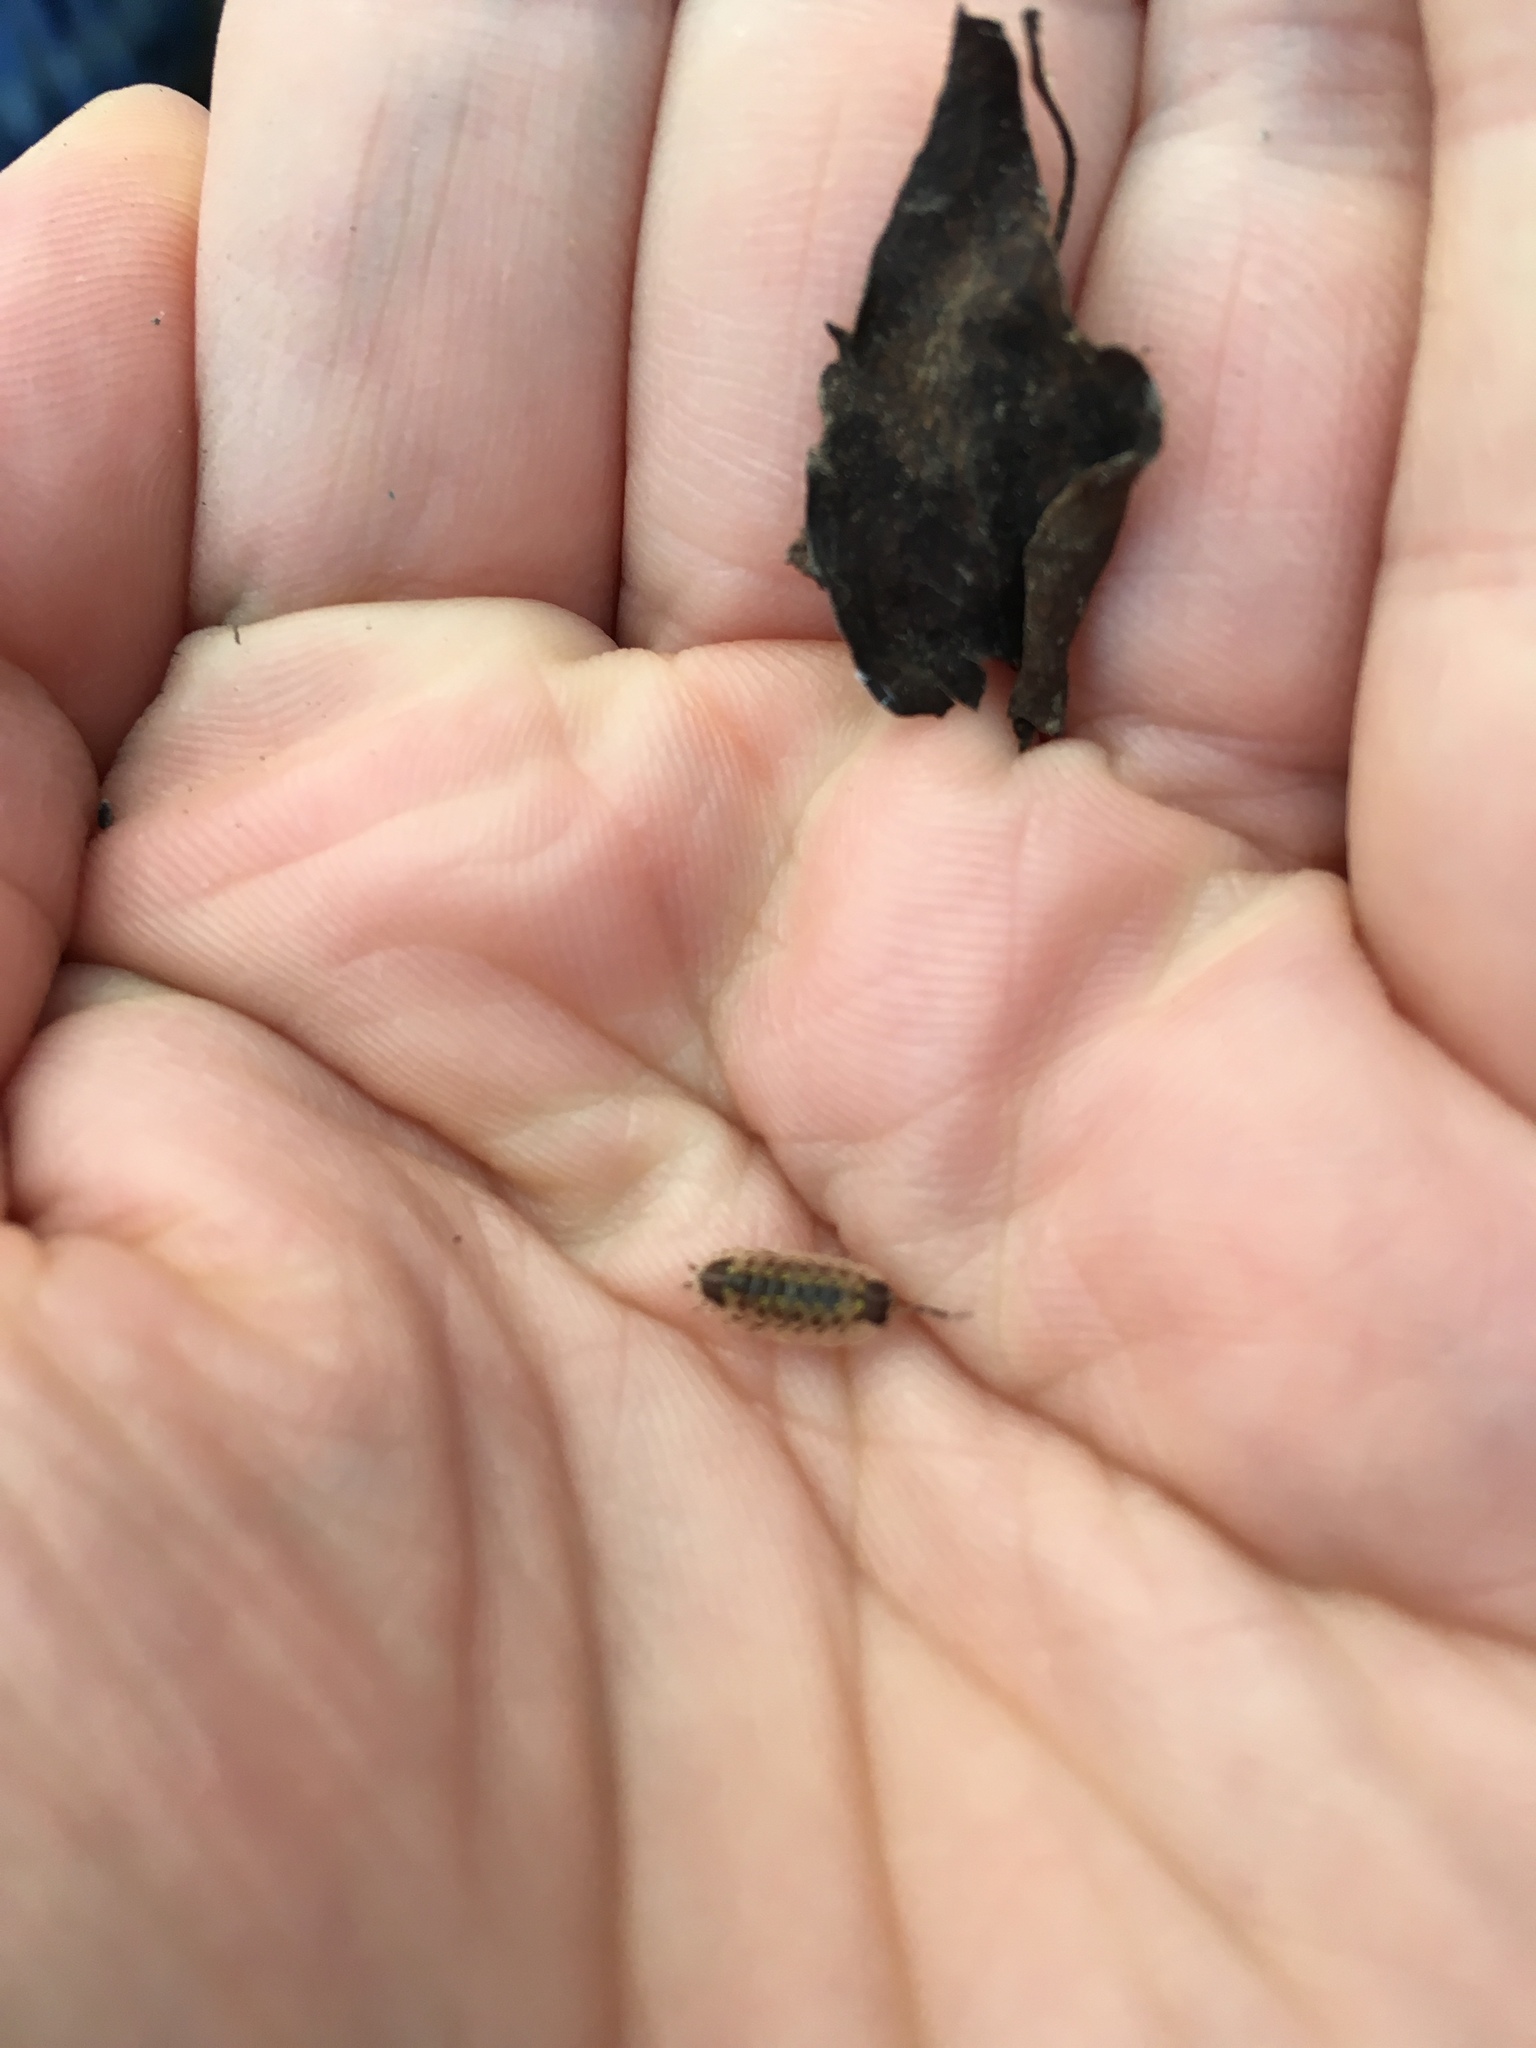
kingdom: Animalia
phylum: Arthropoda
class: Malacostraca
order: Isopoda
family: Porcellionidae
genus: Porcellio
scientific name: Porcellio spinicornis
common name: Painted woodlouse
